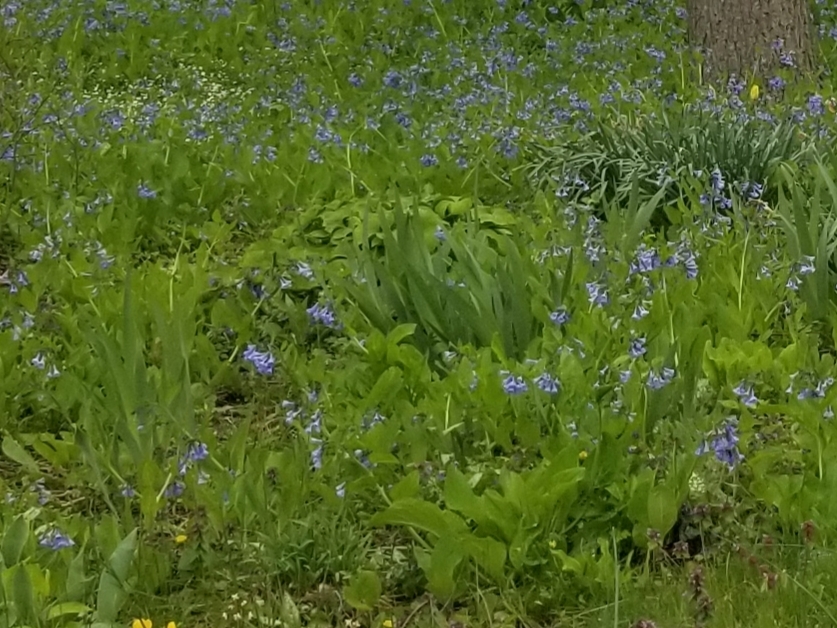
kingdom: Plantae
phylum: Tracheophyta
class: Magnoliopsida
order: Boraginales
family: Boraginaceae
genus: Mertensia
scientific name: Mertensia virginica
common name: Virginia bluebells
